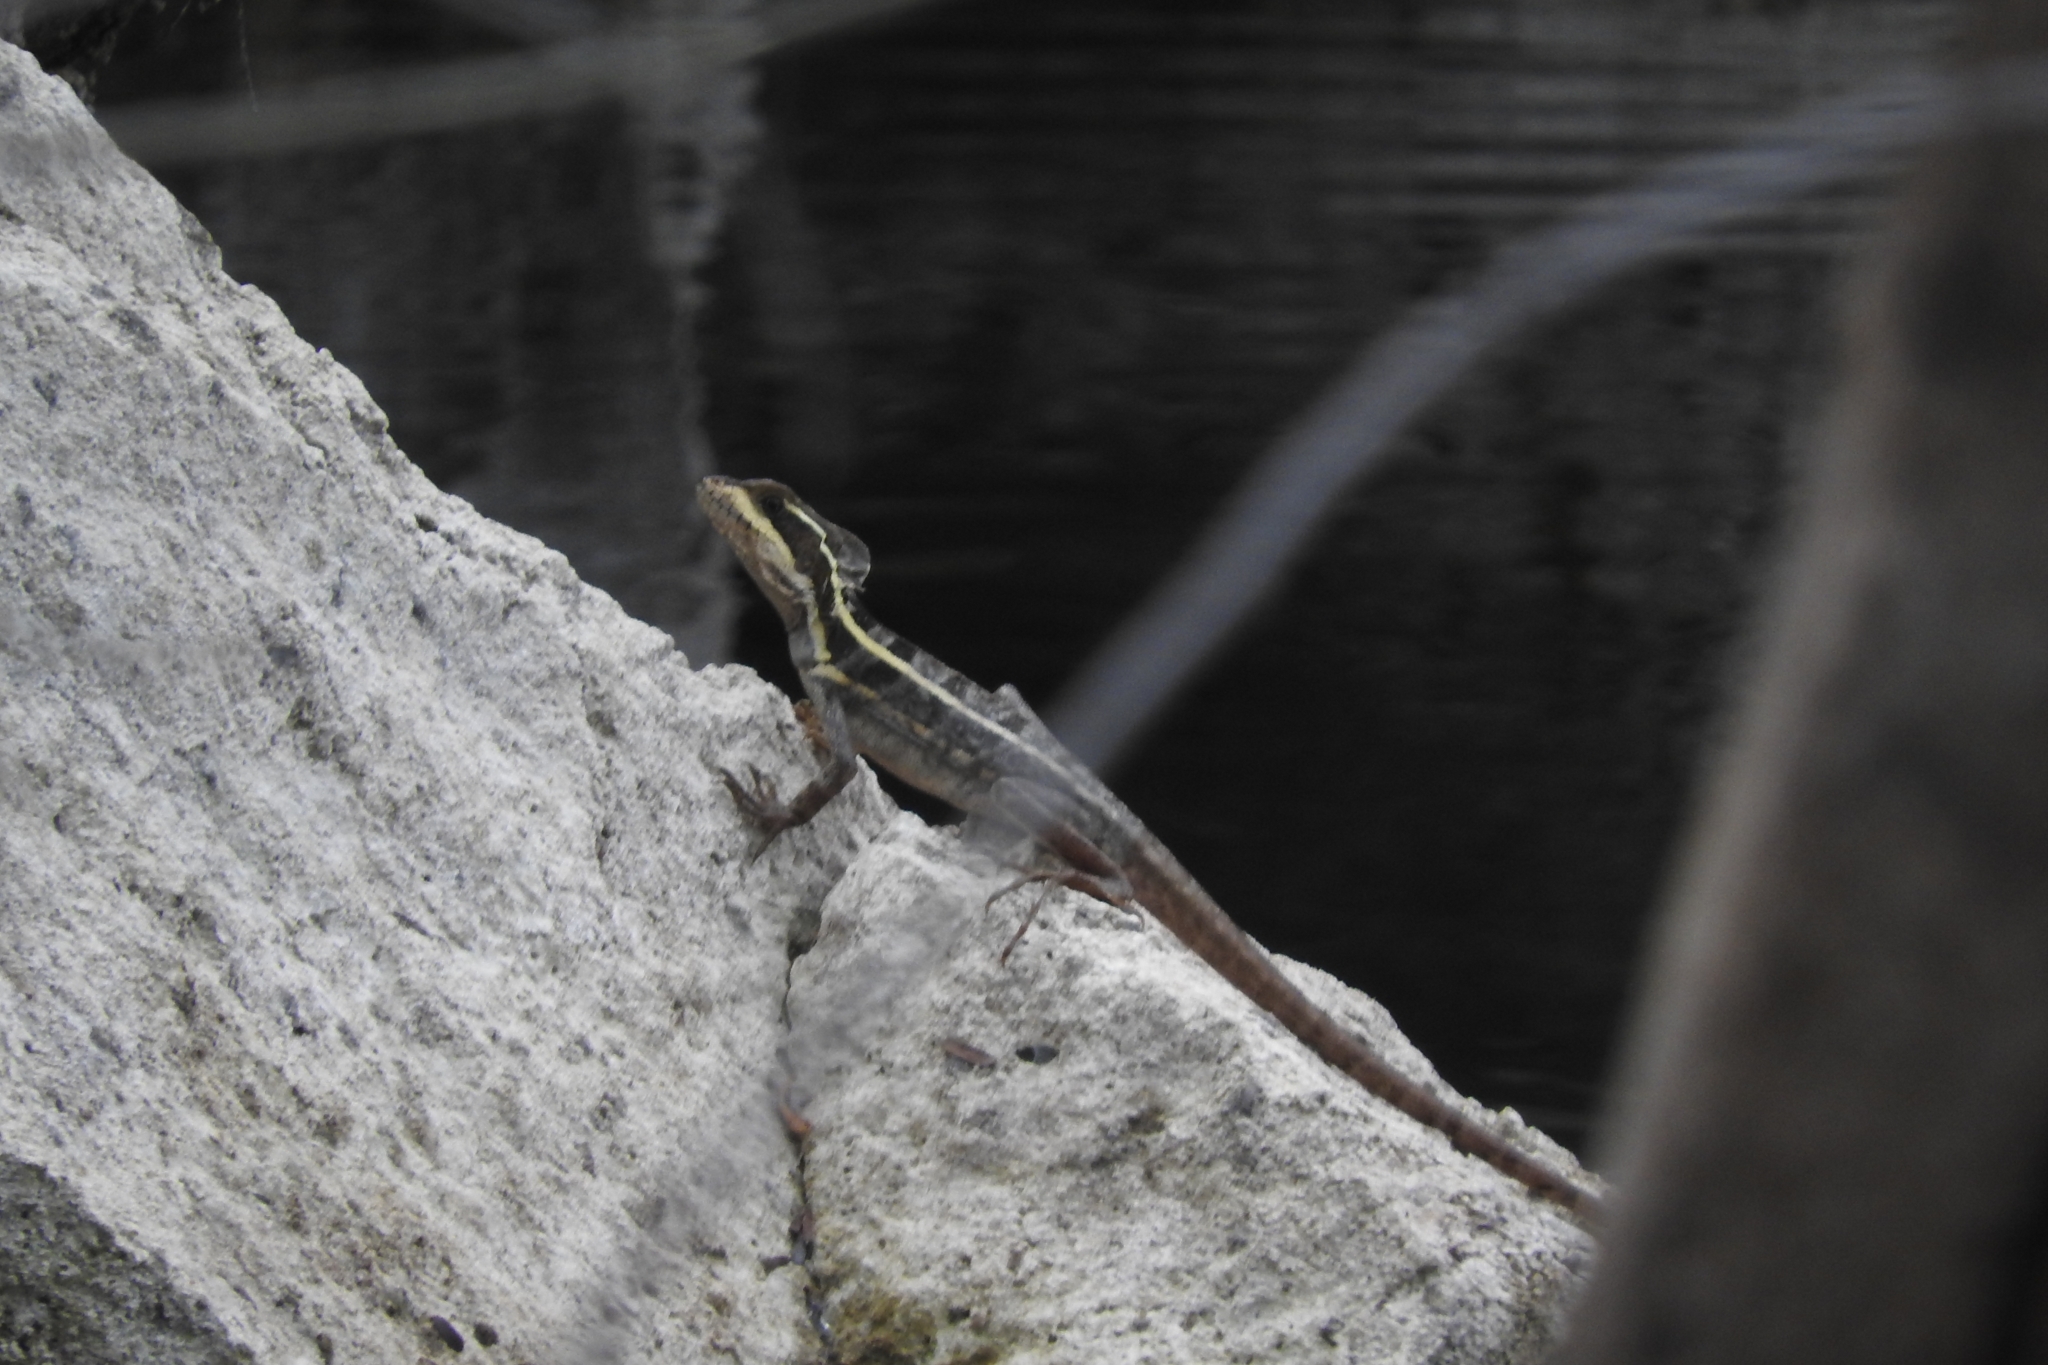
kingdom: Animalia
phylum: Chordata
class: Squamata
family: Corytophanidae
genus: Basiliscus
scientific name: Basiliscus vittatus
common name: Brown basilisk
